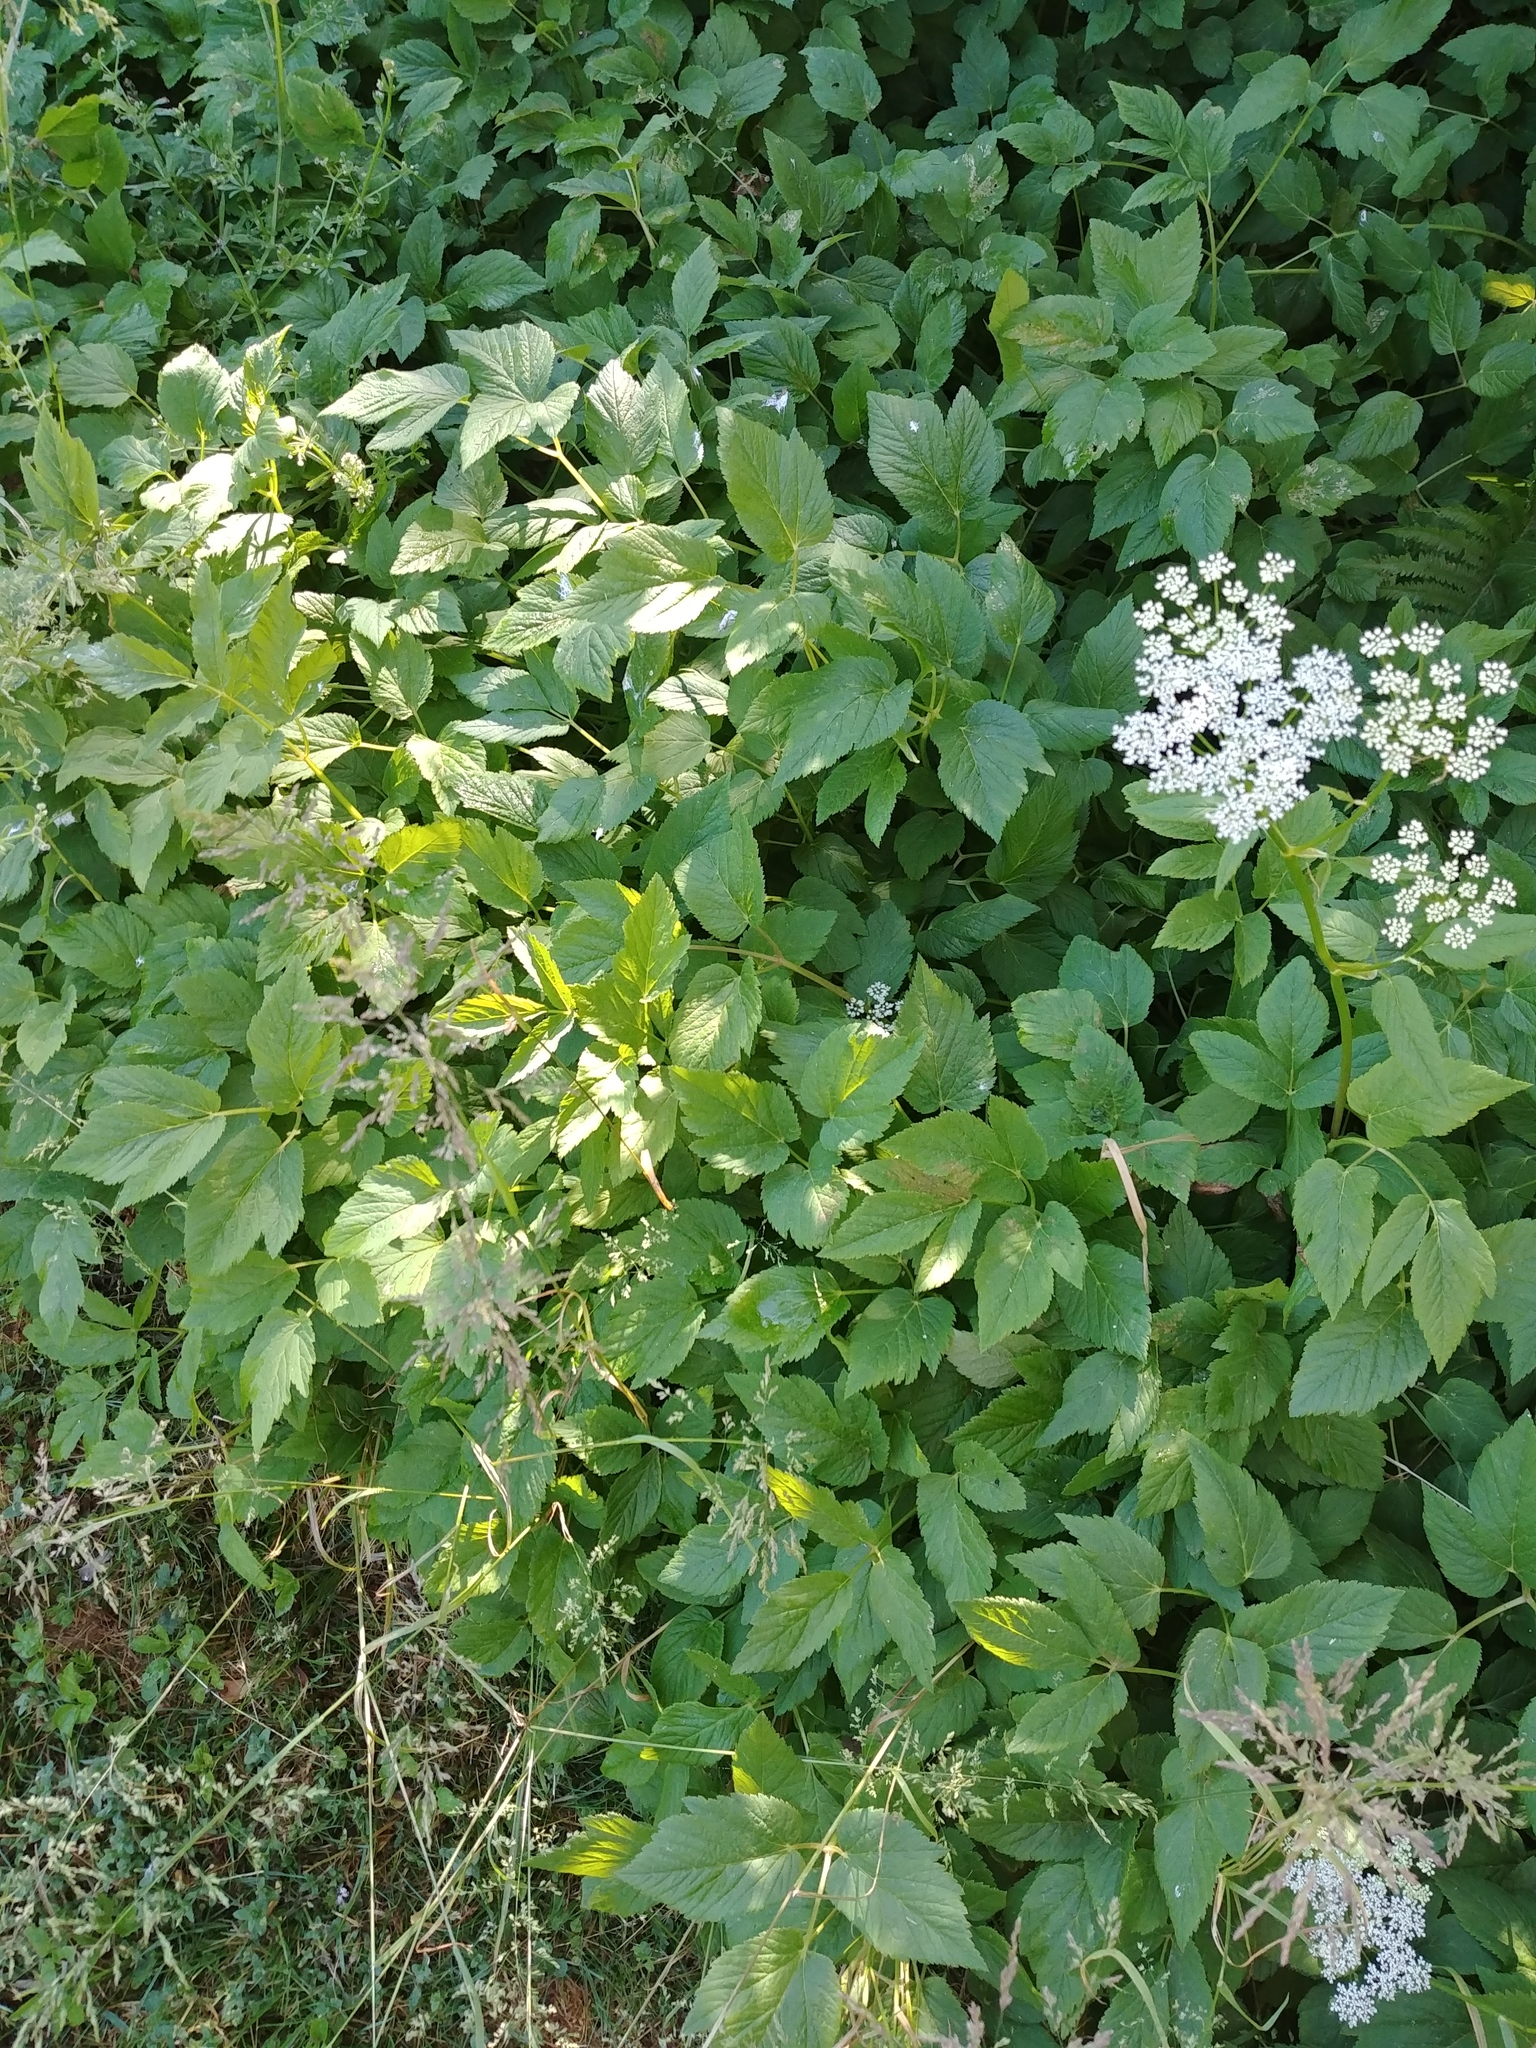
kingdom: Plantae
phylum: Tracheophyta
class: Magnoliopsida
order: Apiales
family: Apiaceae
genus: Aegopodium
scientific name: Aegopodium podagraria
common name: Ground-elder
